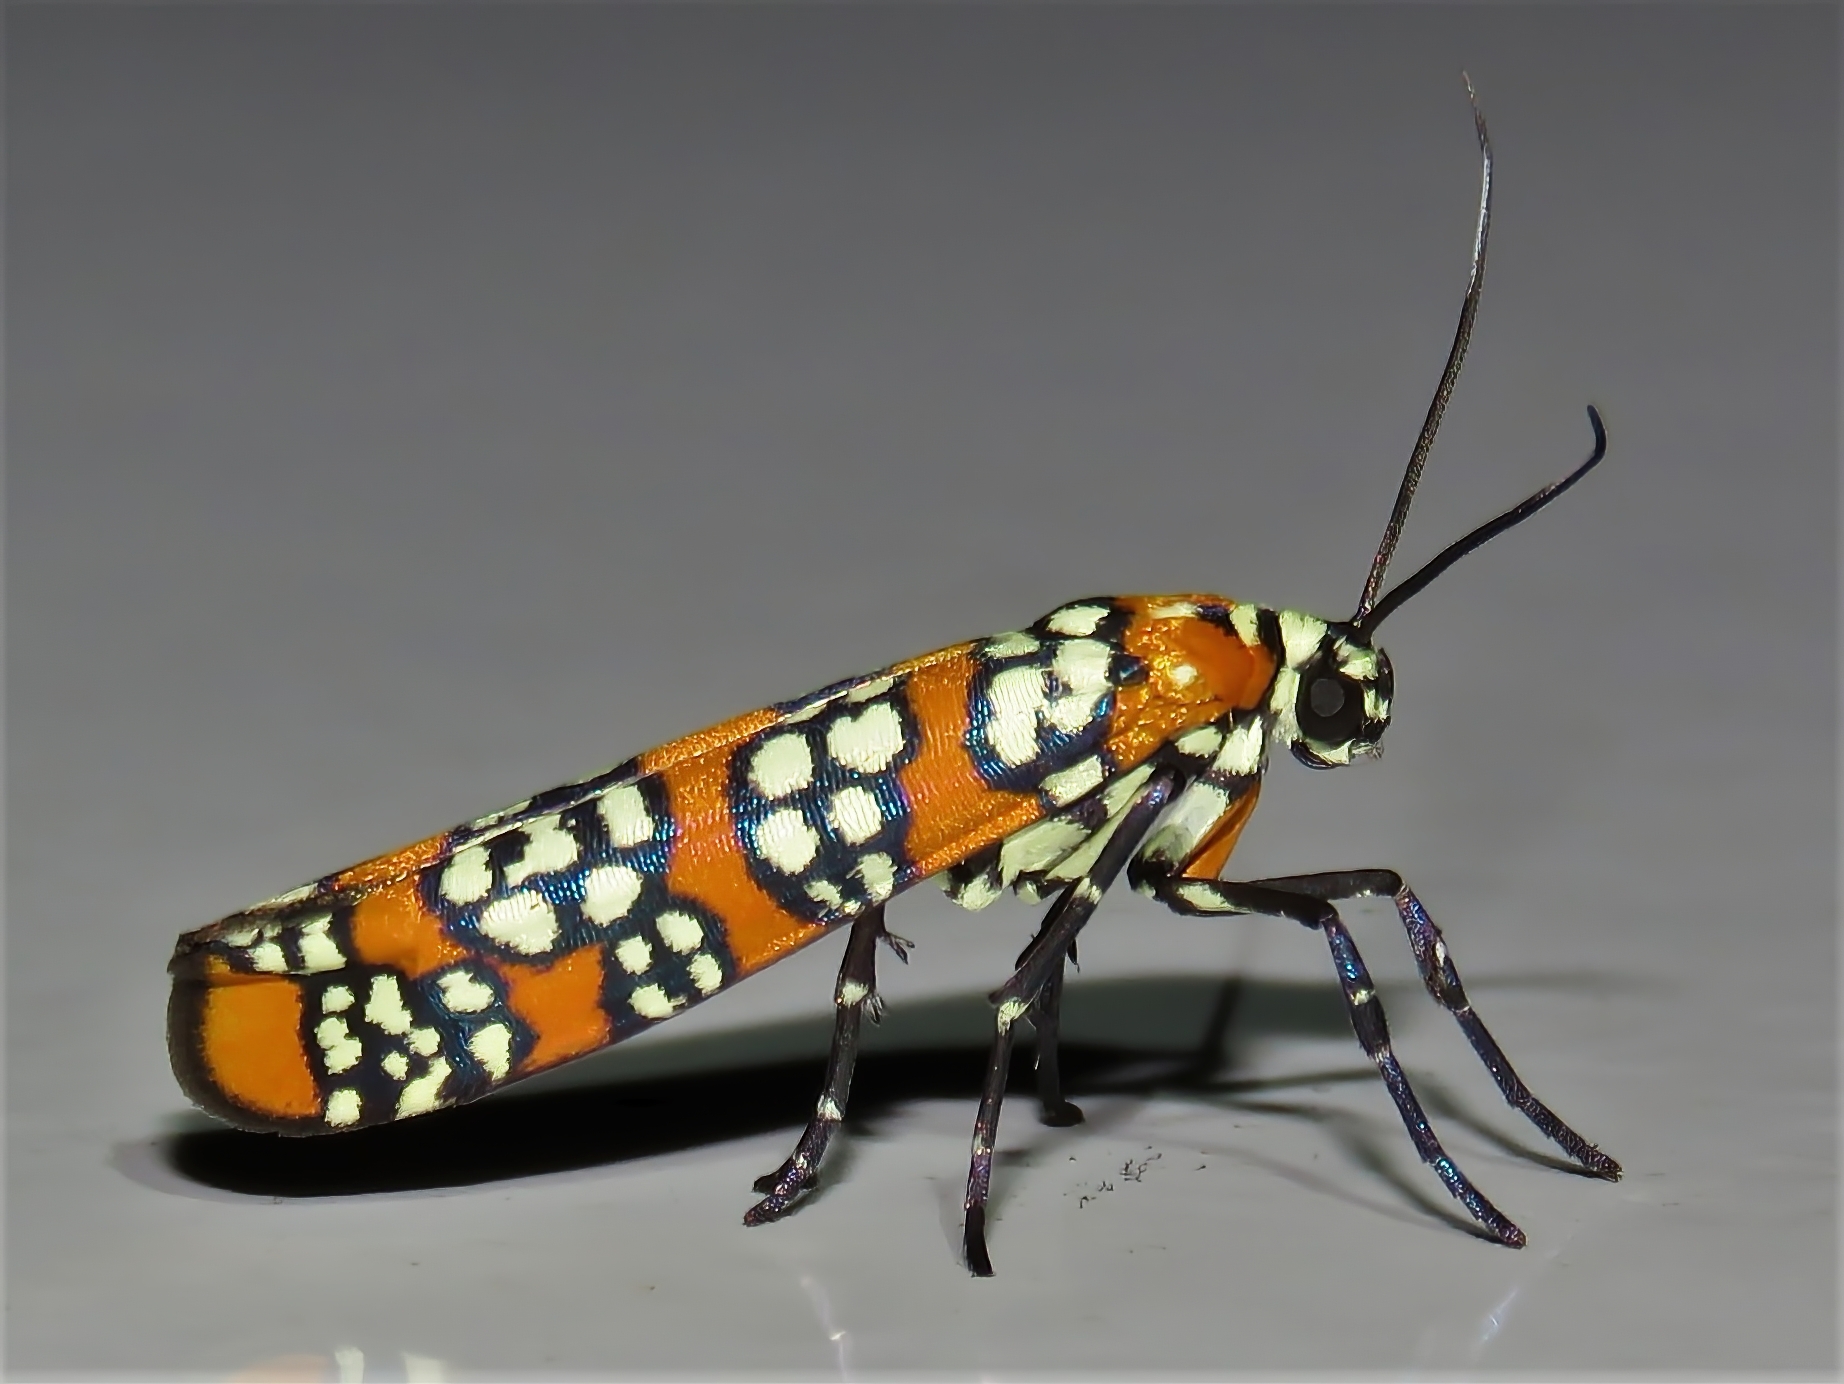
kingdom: Animalia
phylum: Arthropoda
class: Insecta
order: Lepidoptera
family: Attevidae
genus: Atteva
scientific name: Atteva punctella
